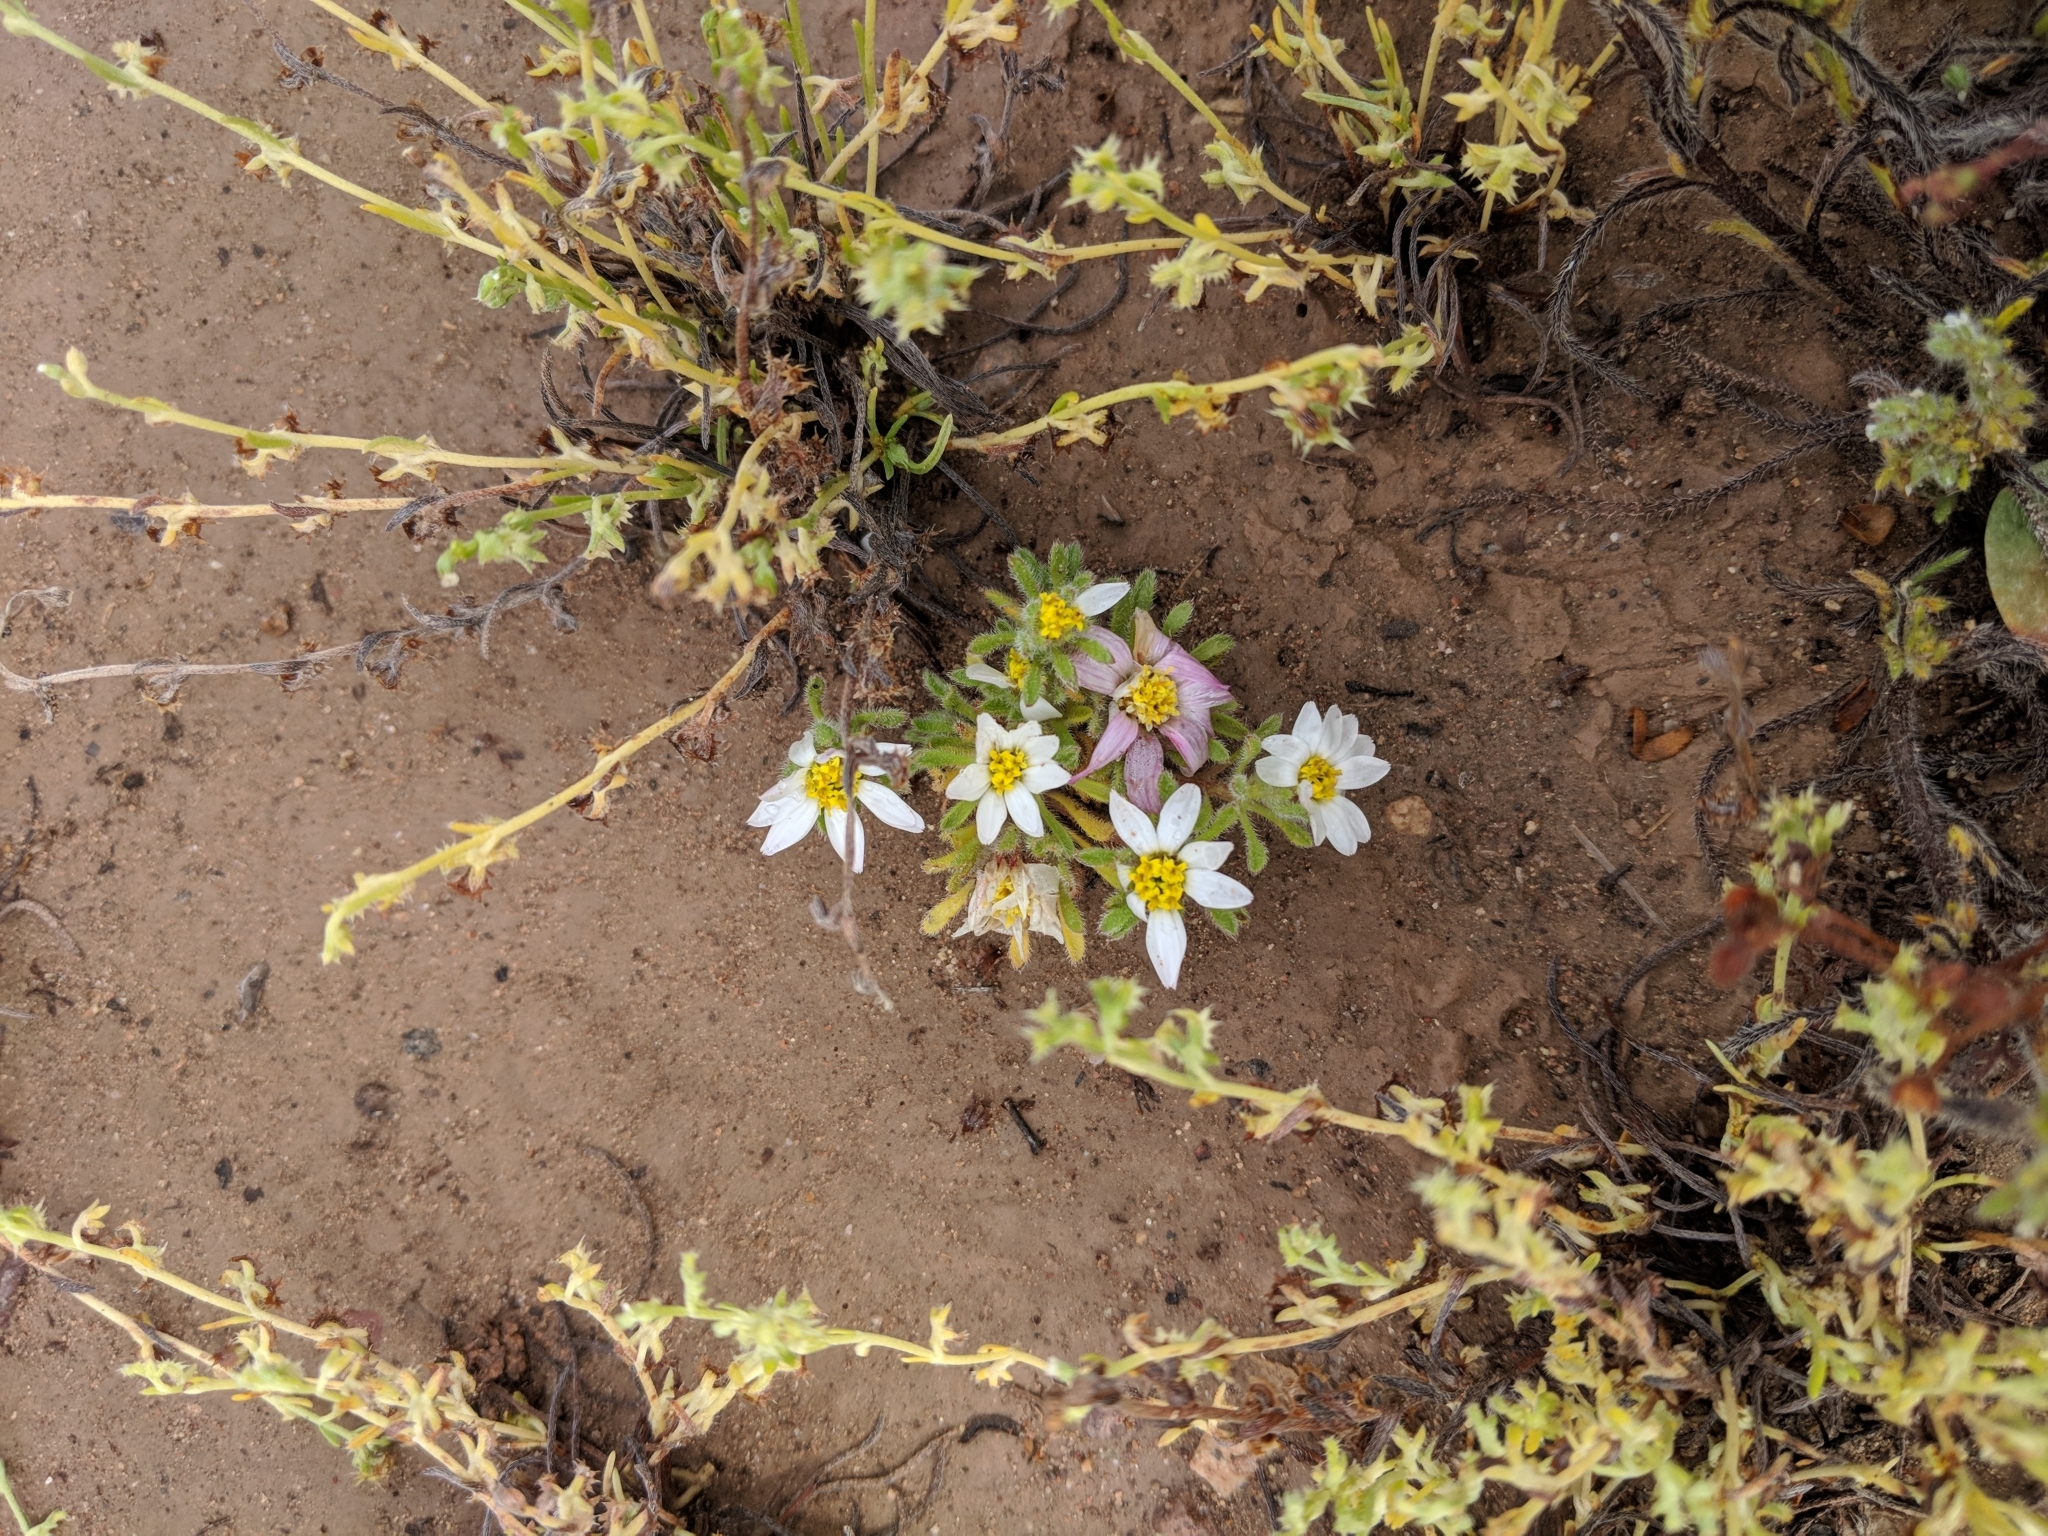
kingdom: Plantae
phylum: Tracheophyta
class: Magnoliopsida
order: Asterales
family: Asteraceae
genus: Monoptilon
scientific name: Monoptilon bellioides
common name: Bristly desertstar
